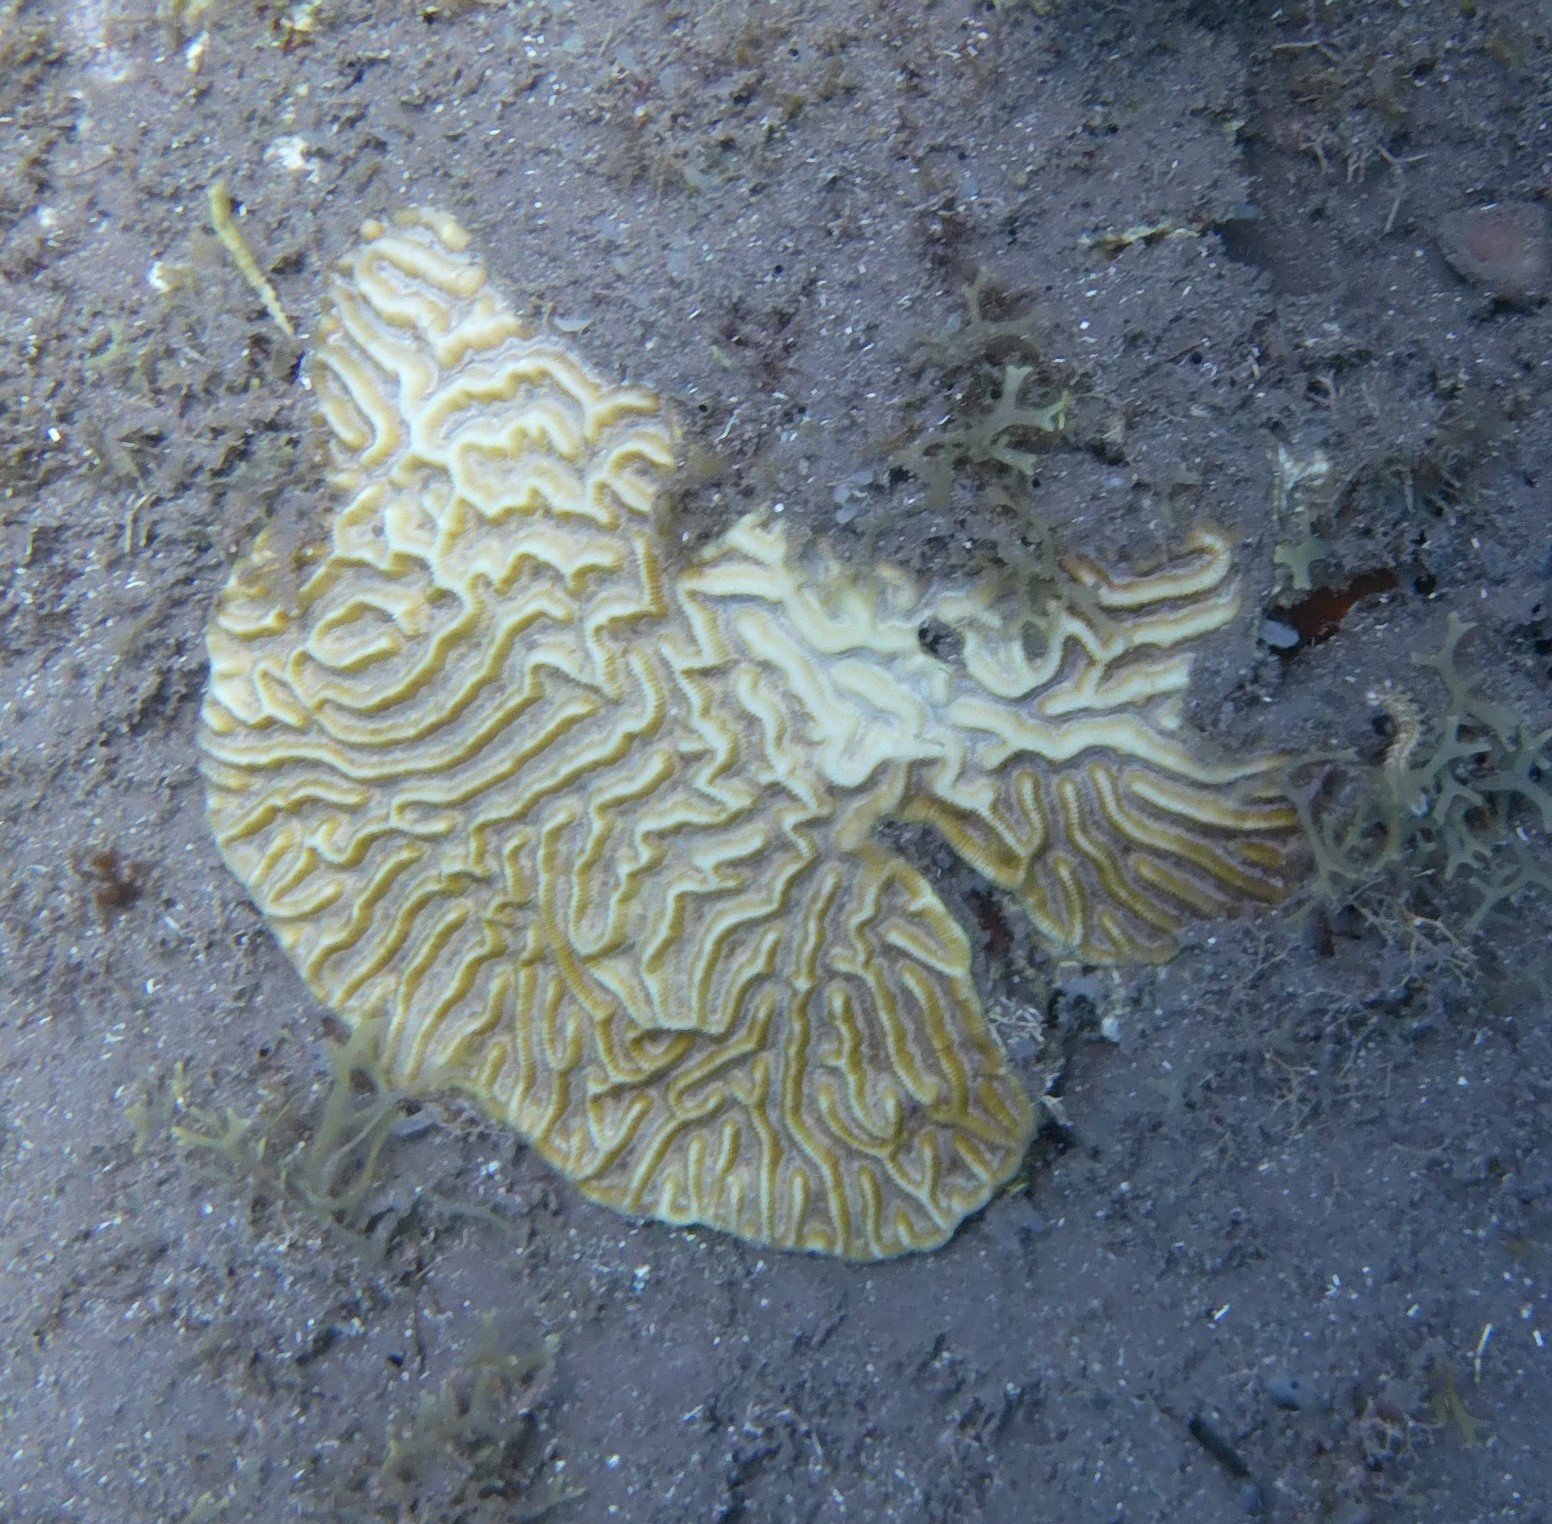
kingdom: Animalia
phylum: Cnidaria
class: Anthozoa
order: Scleractinia
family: Faviidae
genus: Pseudodiploria
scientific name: Pseudodiploria strigosa
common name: Symmetrical brain coral
